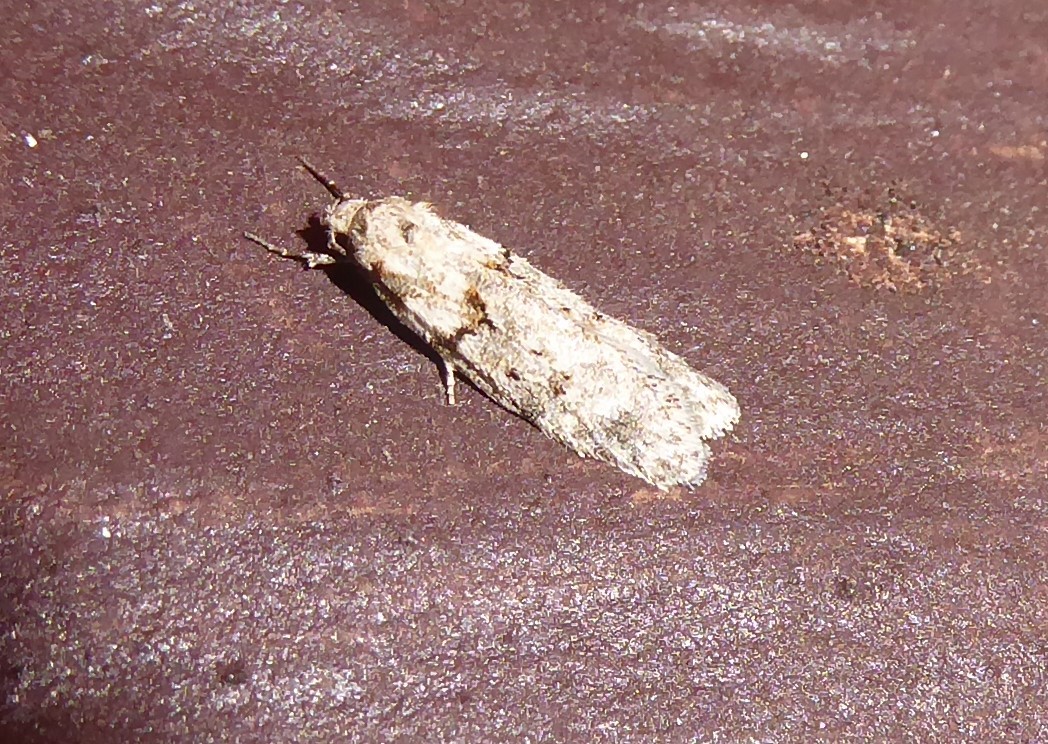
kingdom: Animalia
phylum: Arthropoda
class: Insecta
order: Lepidoptera
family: Oecophoridae
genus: Izatha
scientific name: Izatha convulsella
